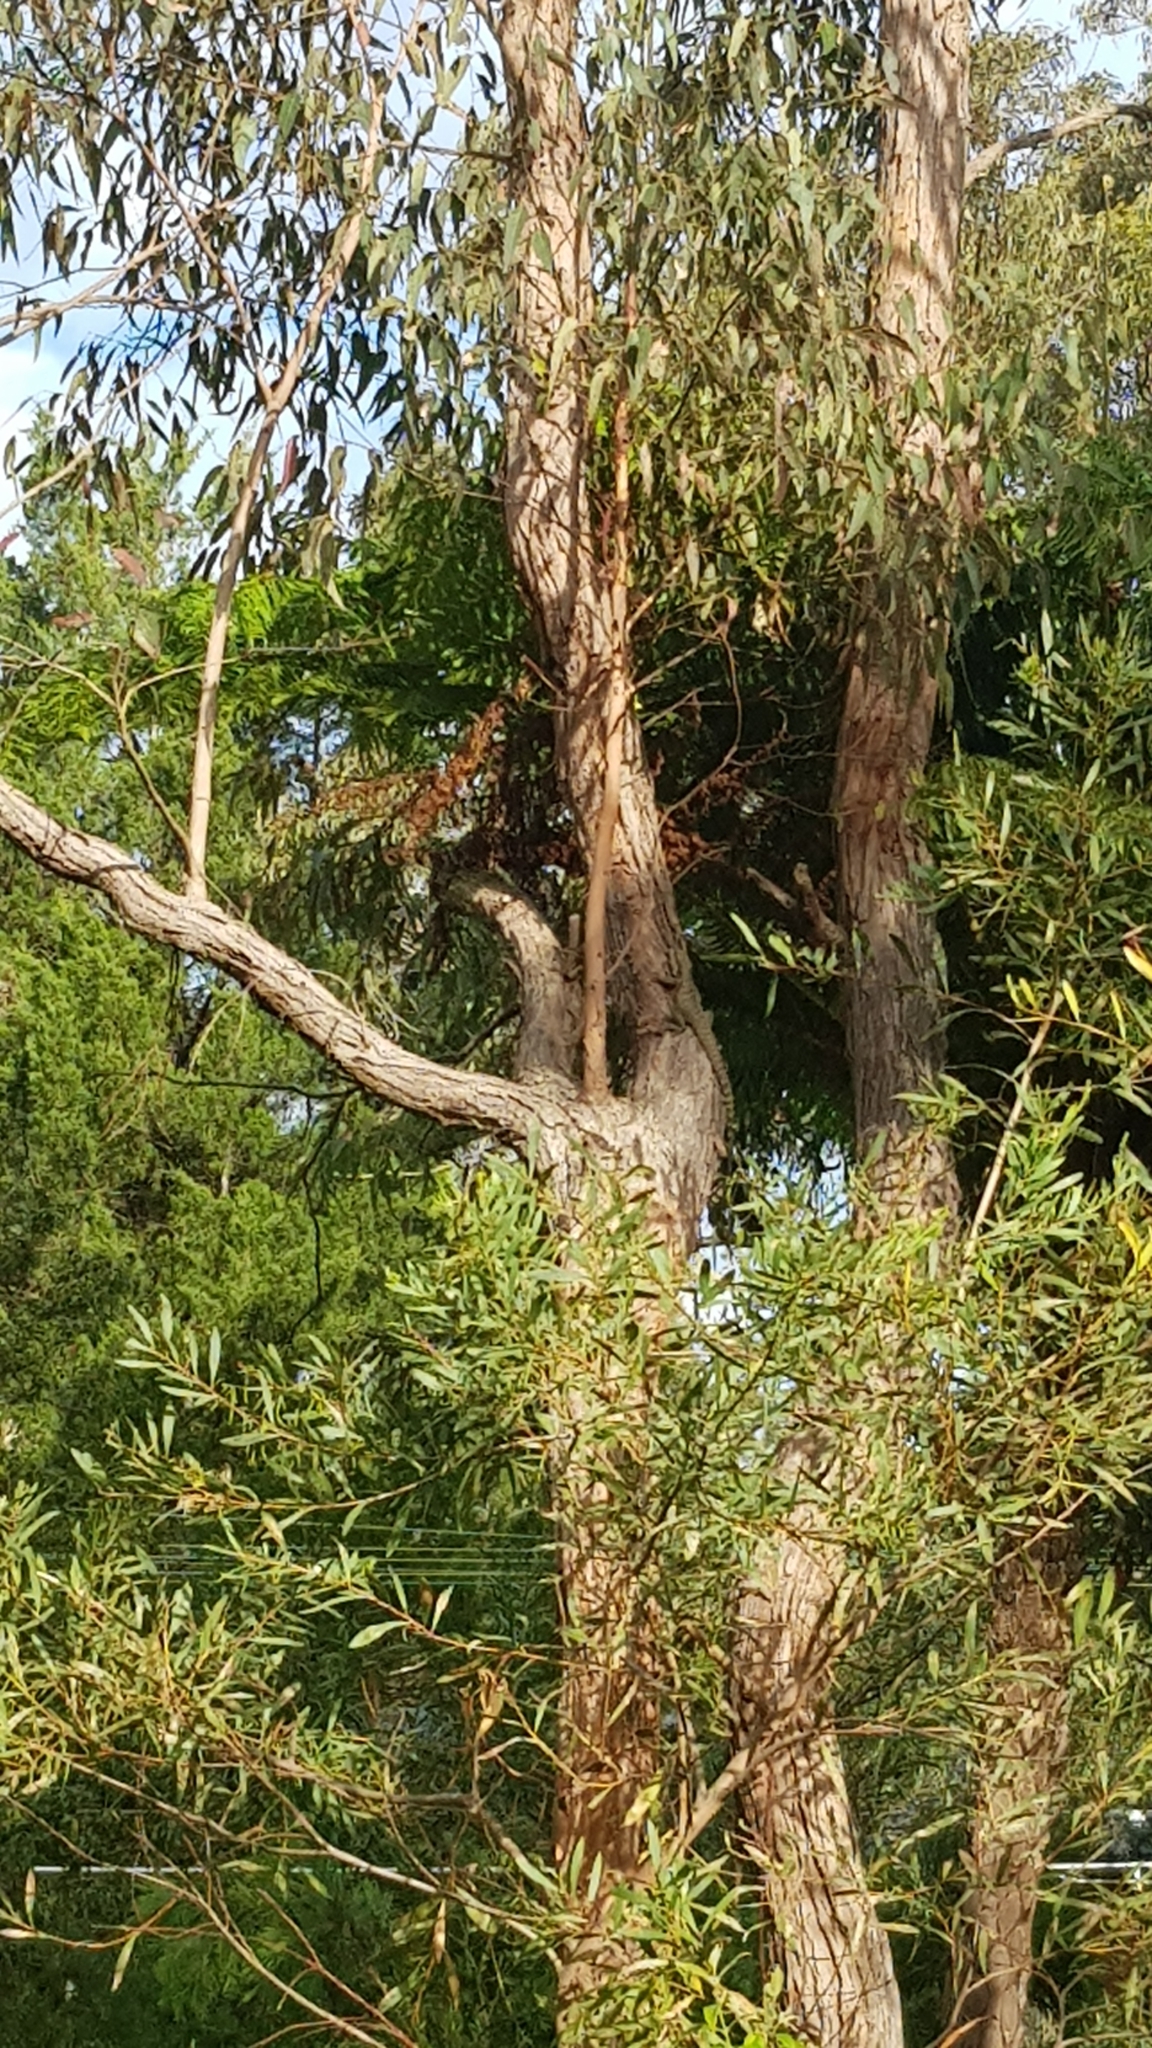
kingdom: Animalia
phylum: Chordata
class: Squamata
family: Agamidae
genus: Intellagama
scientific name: Intellagama lesueurii
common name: Eastern water dragon
